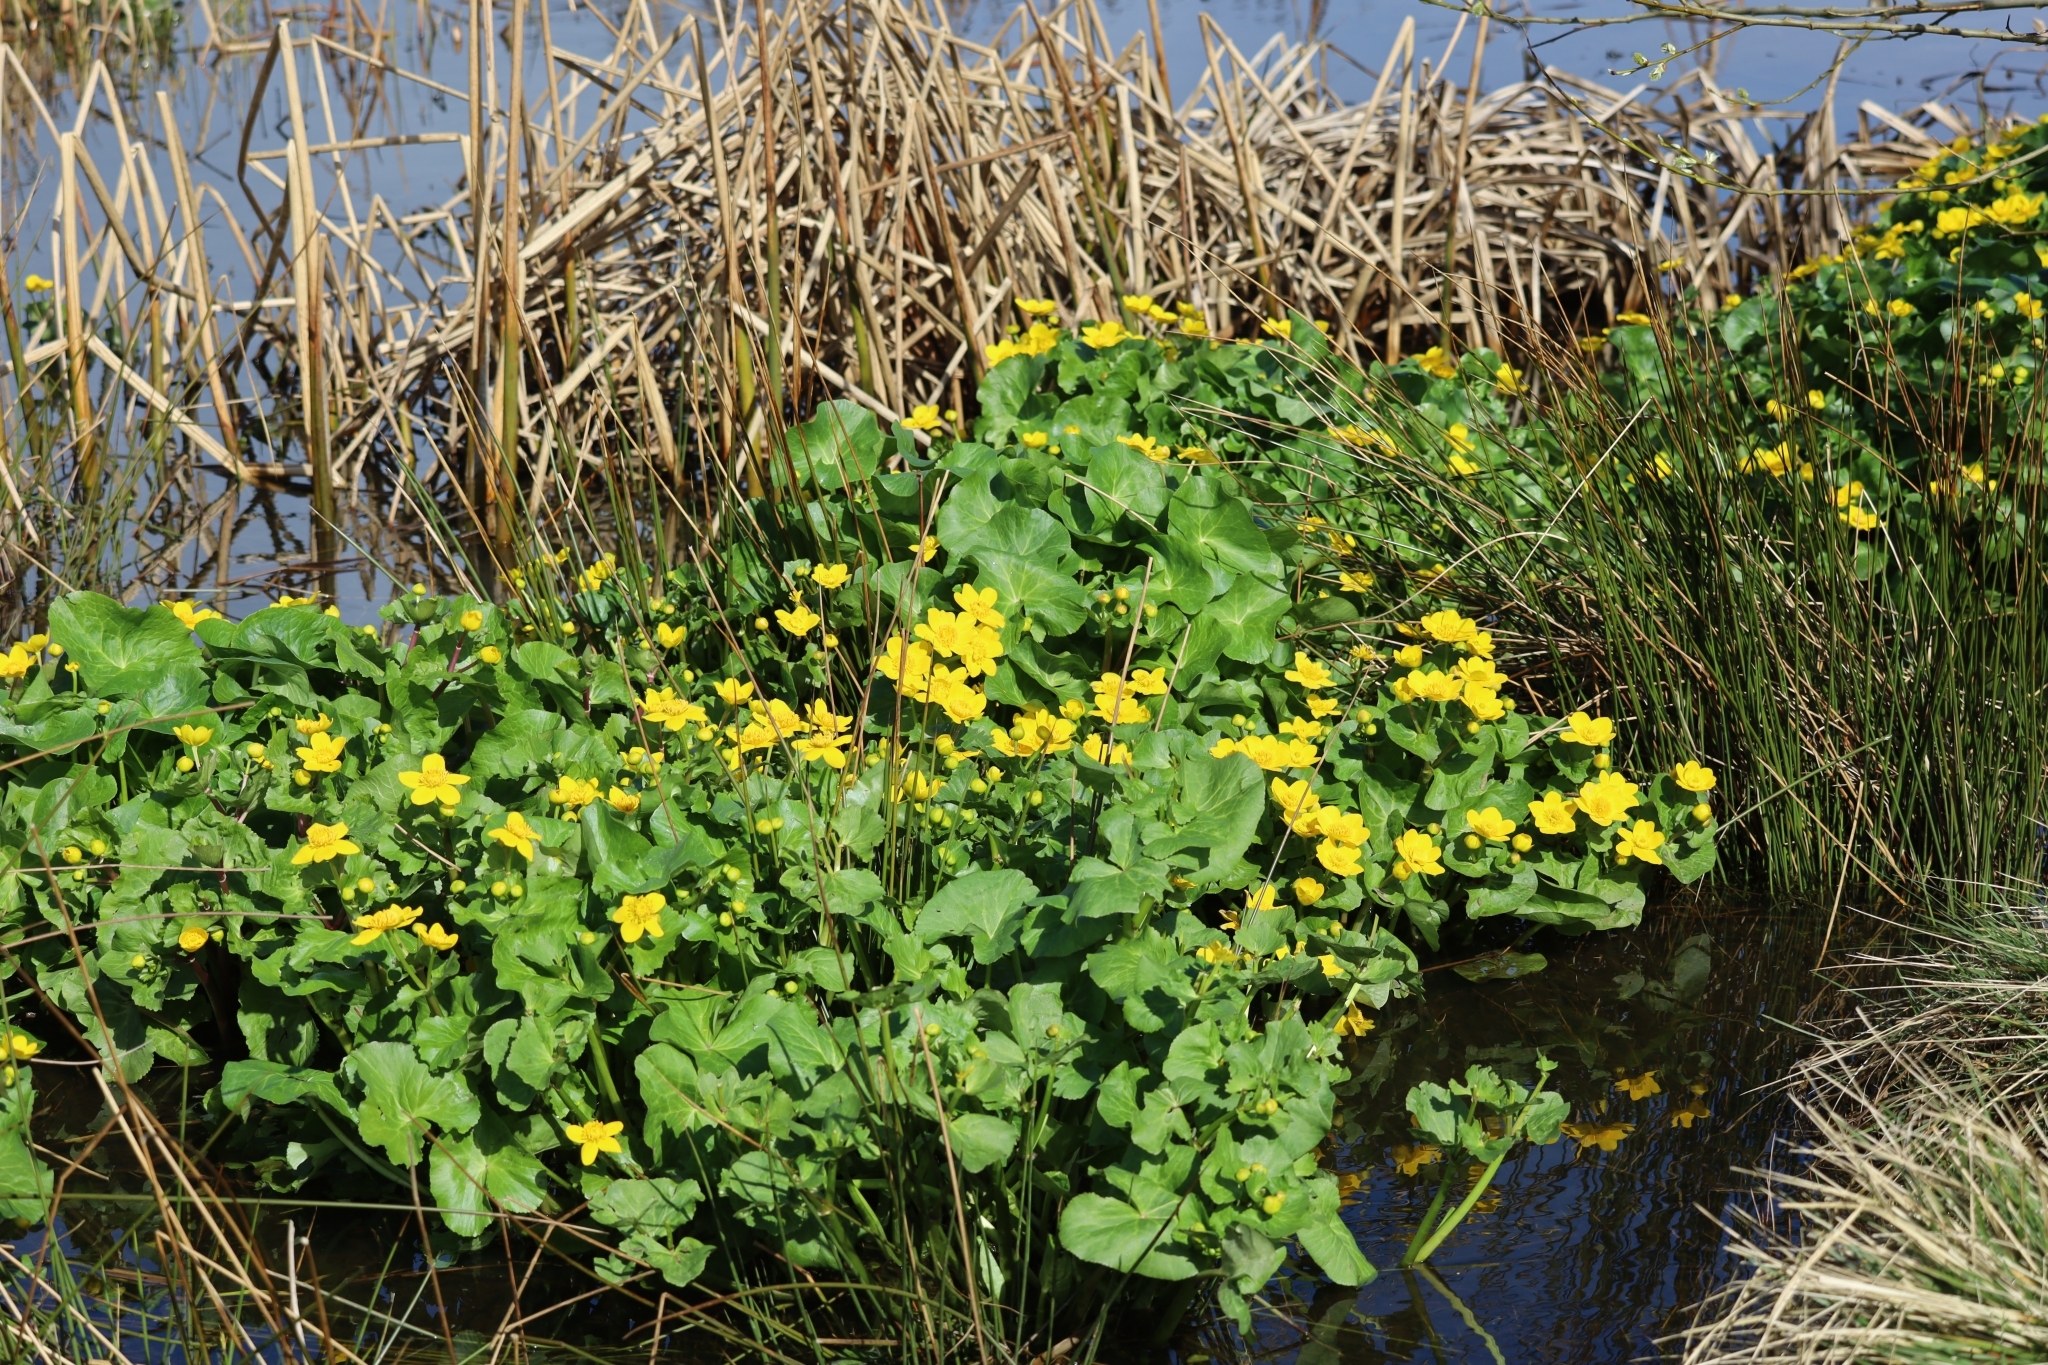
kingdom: Plantae
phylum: Tracheophyta
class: Magnoliopsida
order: Ranunculales
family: Ranunculaceae
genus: Caltha
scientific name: Caltha palustris
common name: Marsh marigold
